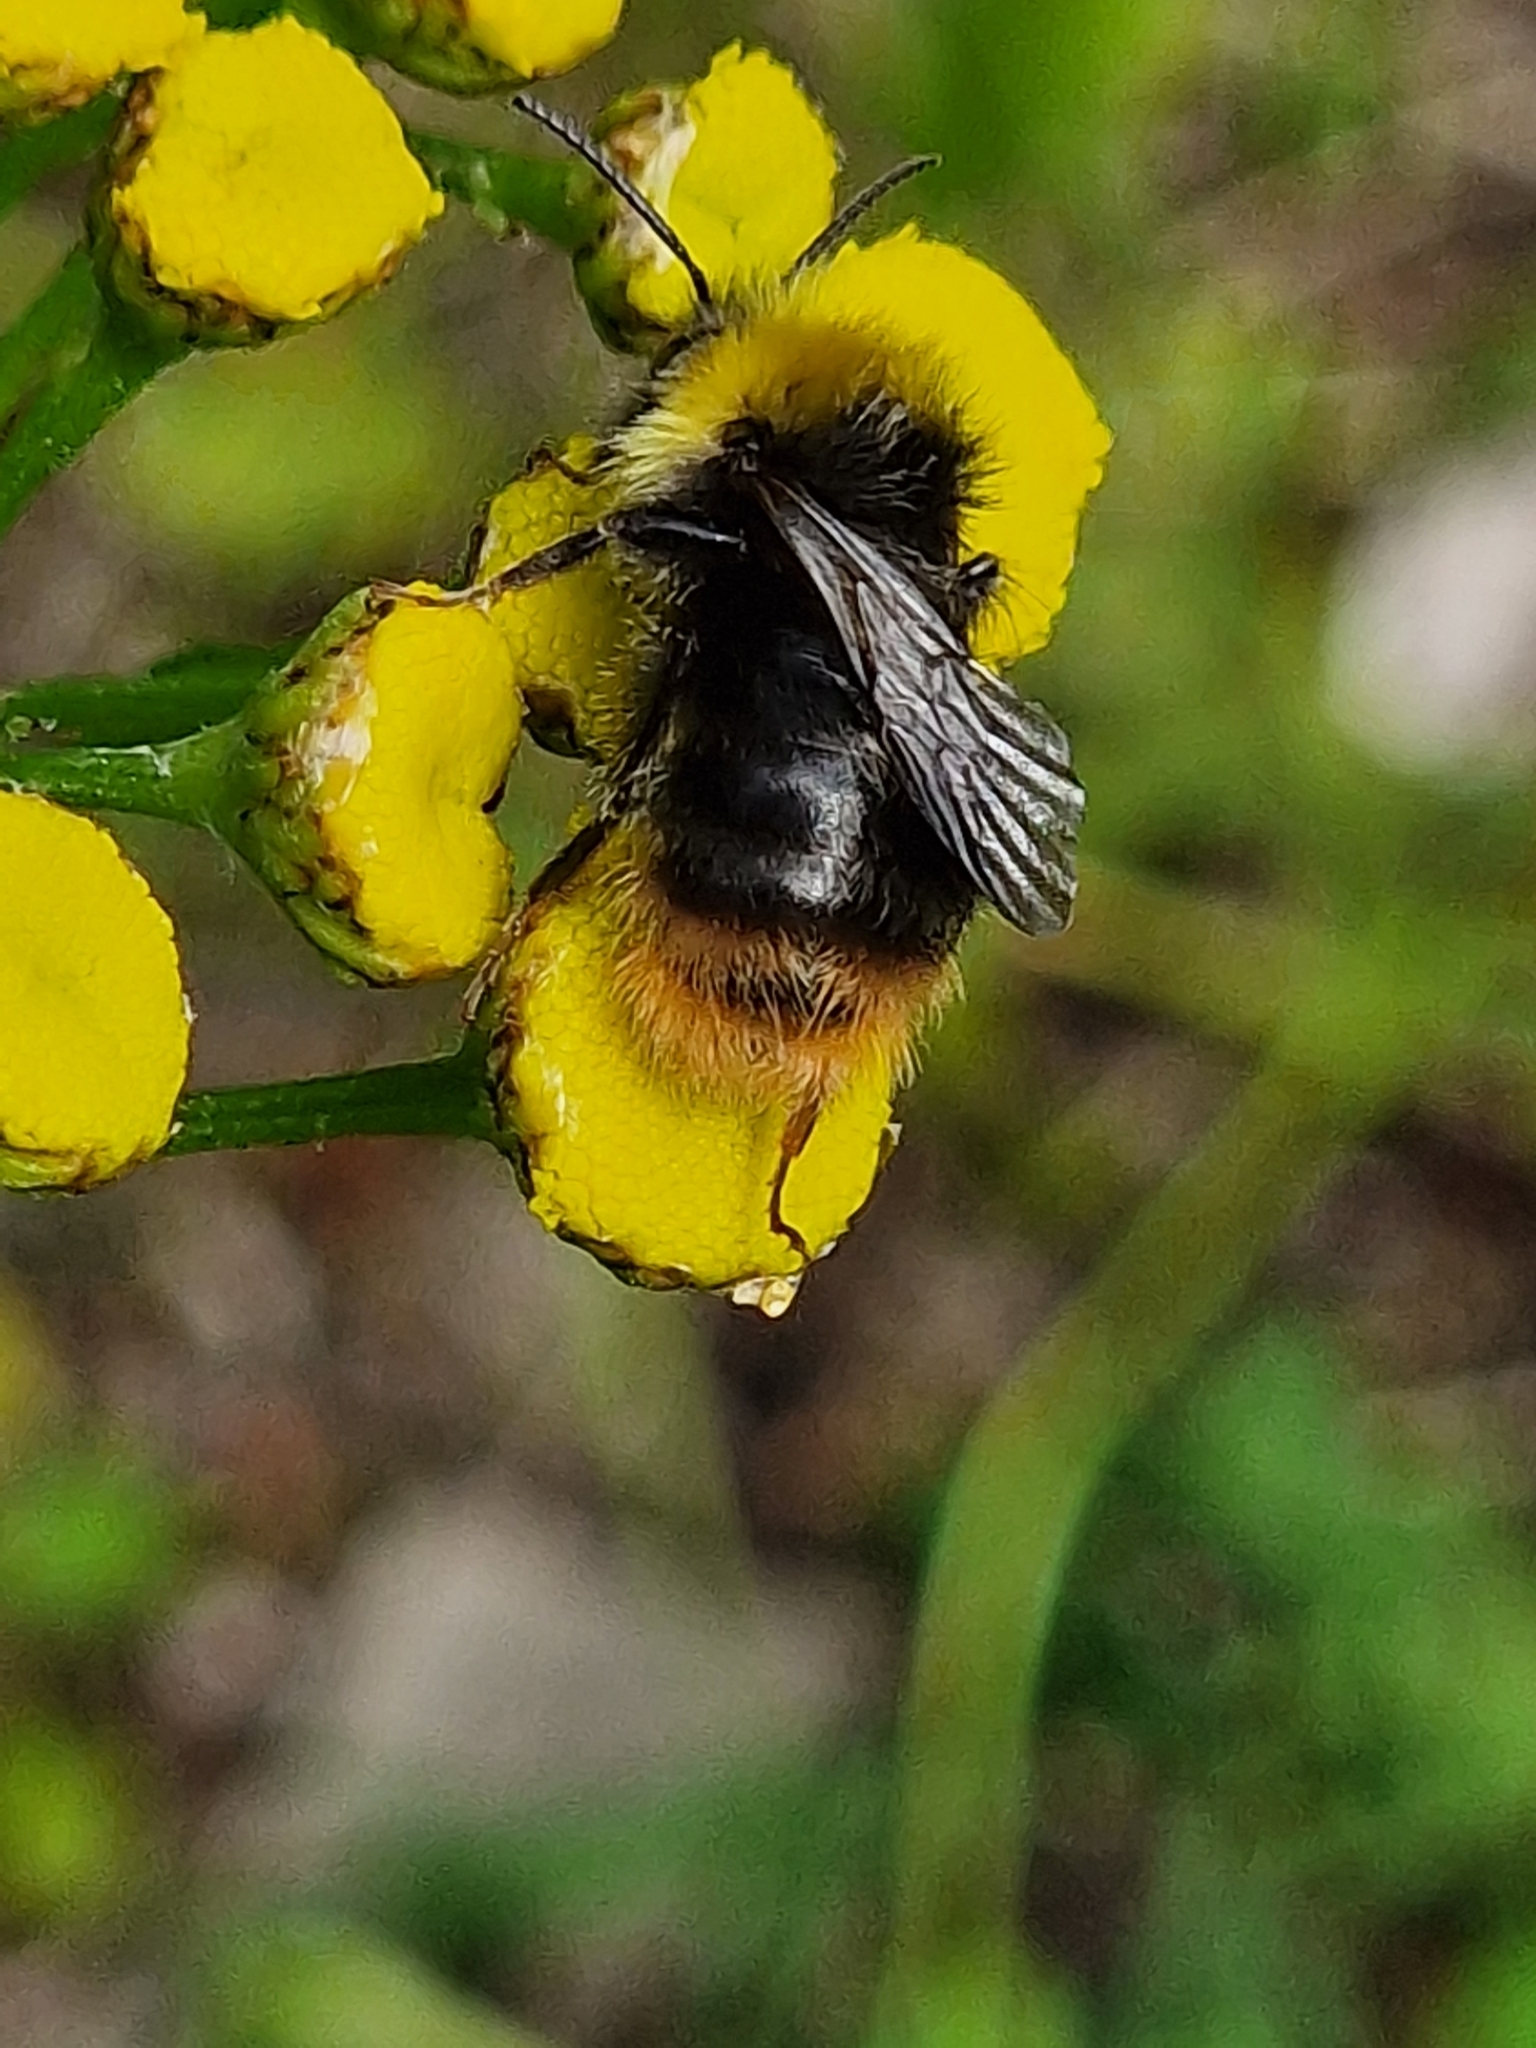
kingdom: Animalia
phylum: Arthropoda
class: Insecta
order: Hymenoptera
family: Apidae
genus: Bombus
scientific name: Bombus pratorum
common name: Early humble-bee
